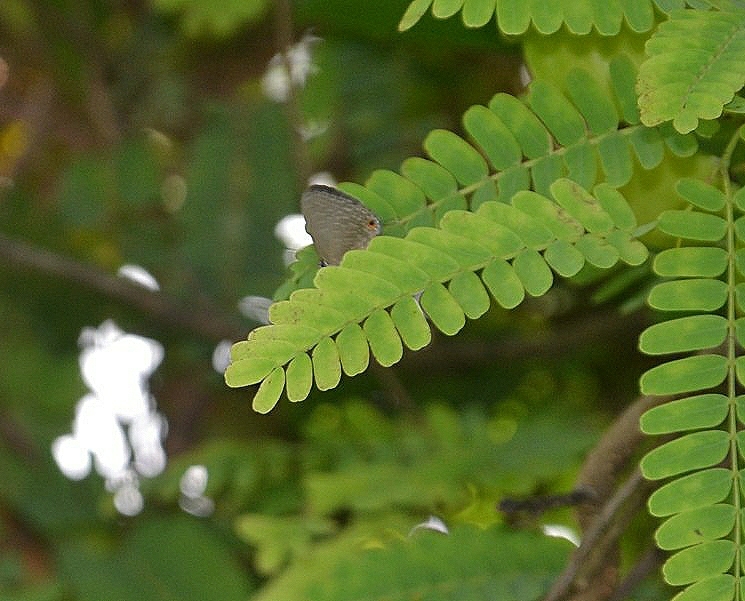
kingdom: Animalia
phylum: Arthropoda
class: Insecta
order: Lepidoptera
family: Lycaenidae
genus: Jamides
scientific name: Jamides bochus
